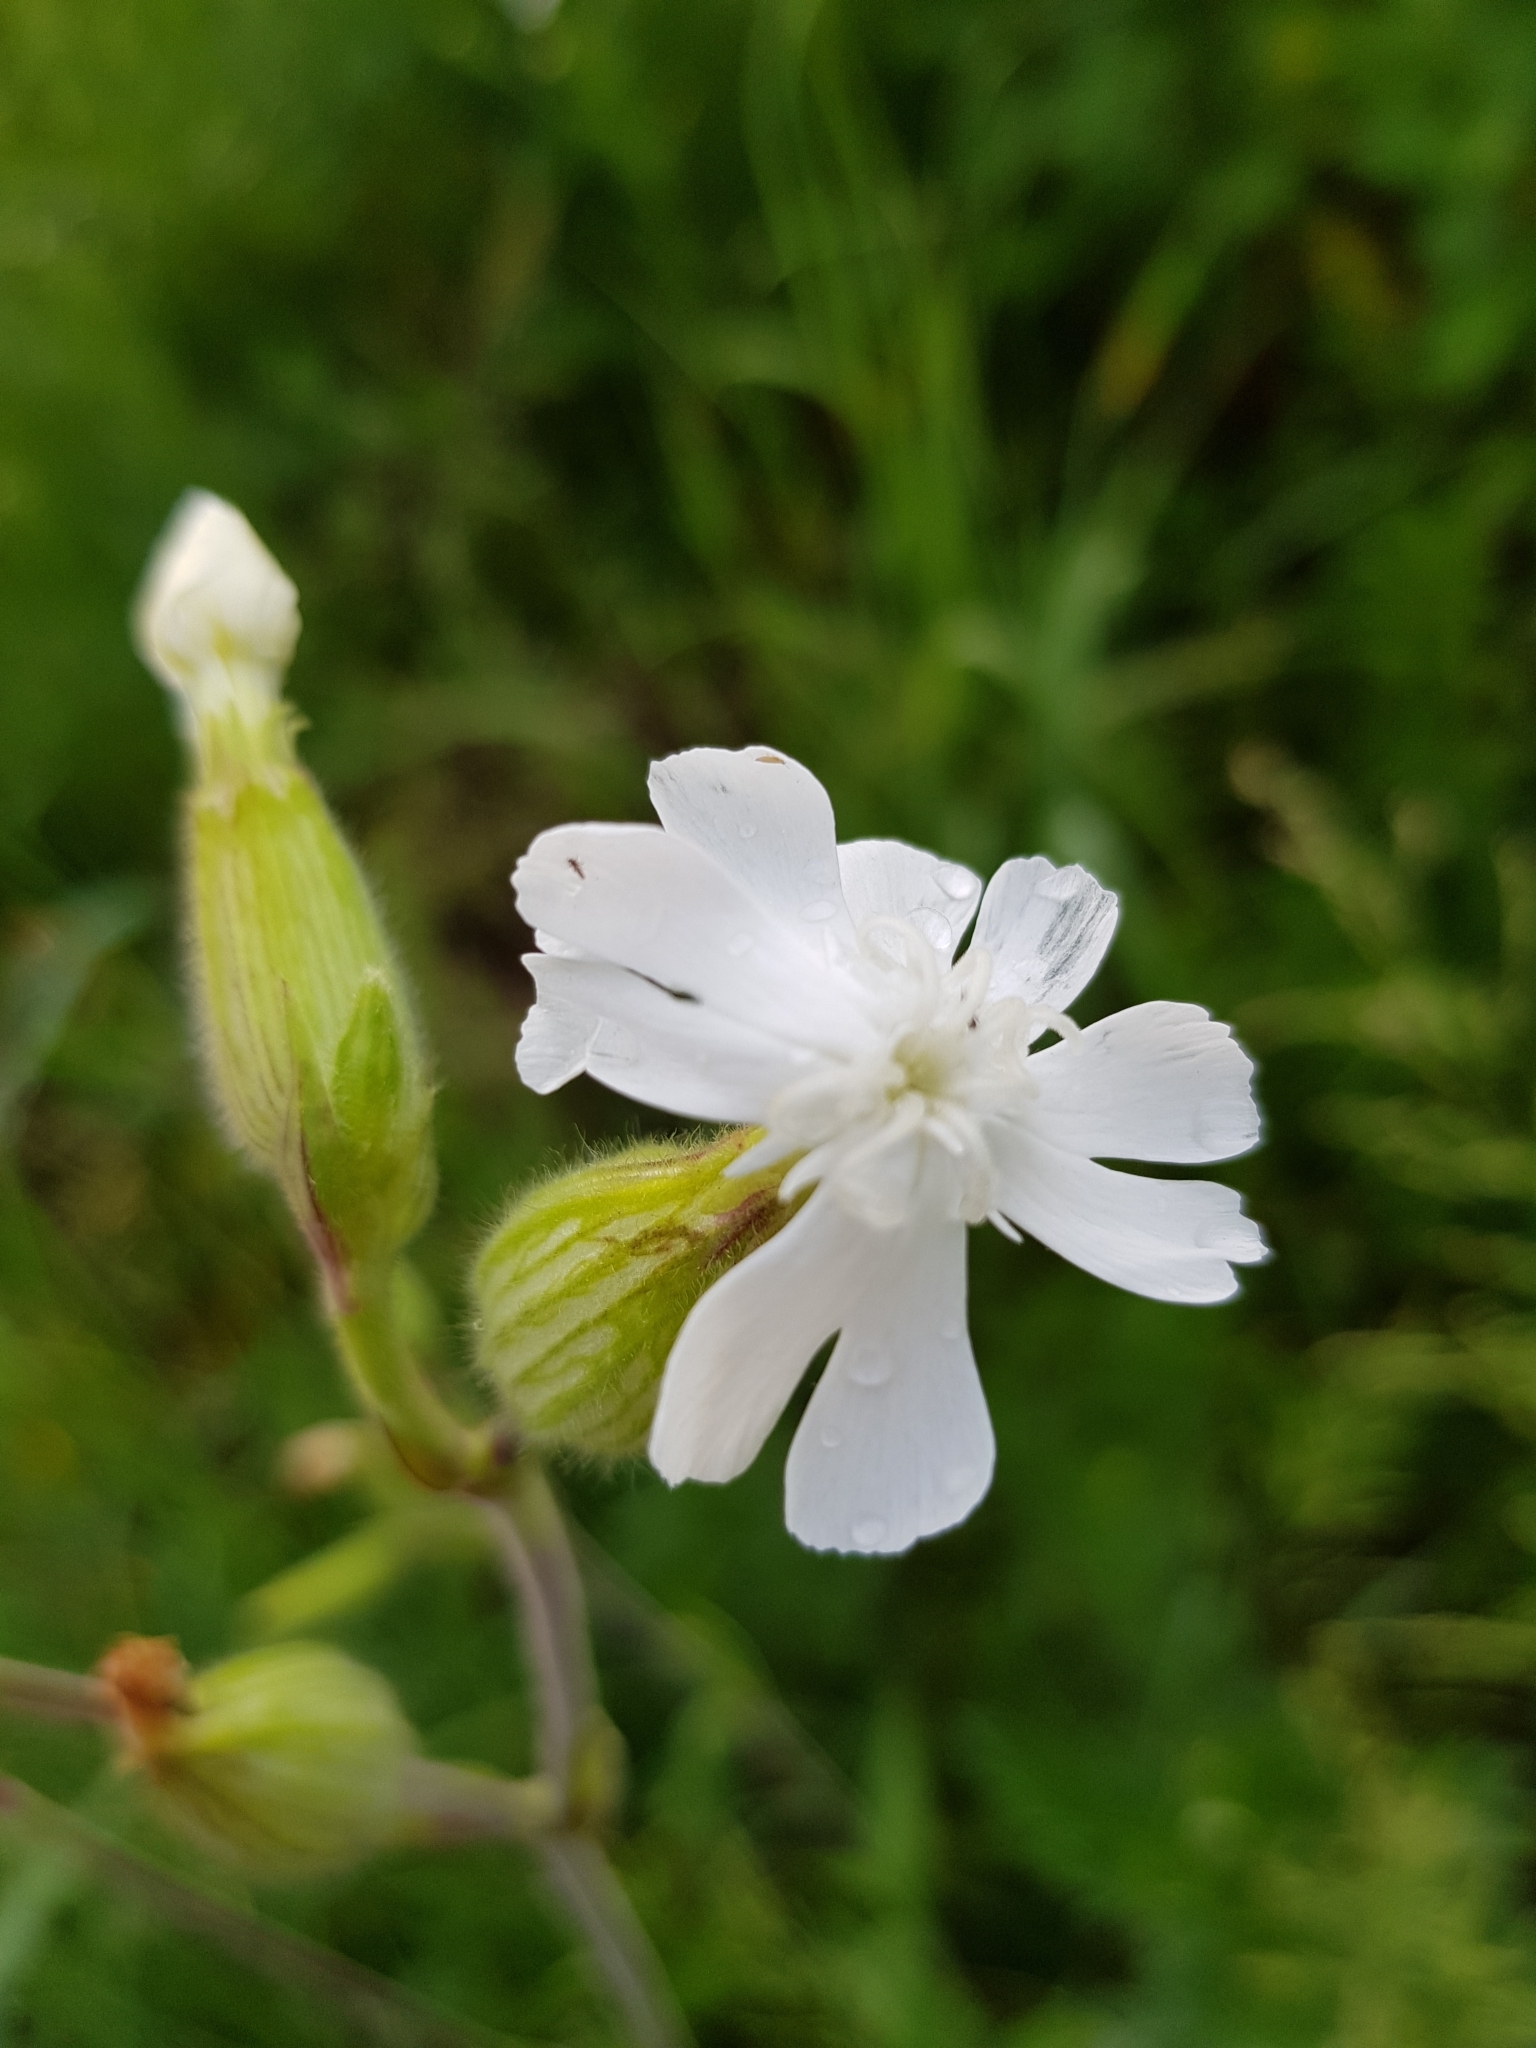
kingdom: Plantae
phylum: Tracheophyta
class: Magnoliopsida
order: Caryophyllales
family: Caryophyllaceae
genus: Silene
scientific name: Silene latifolia
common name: White campion
